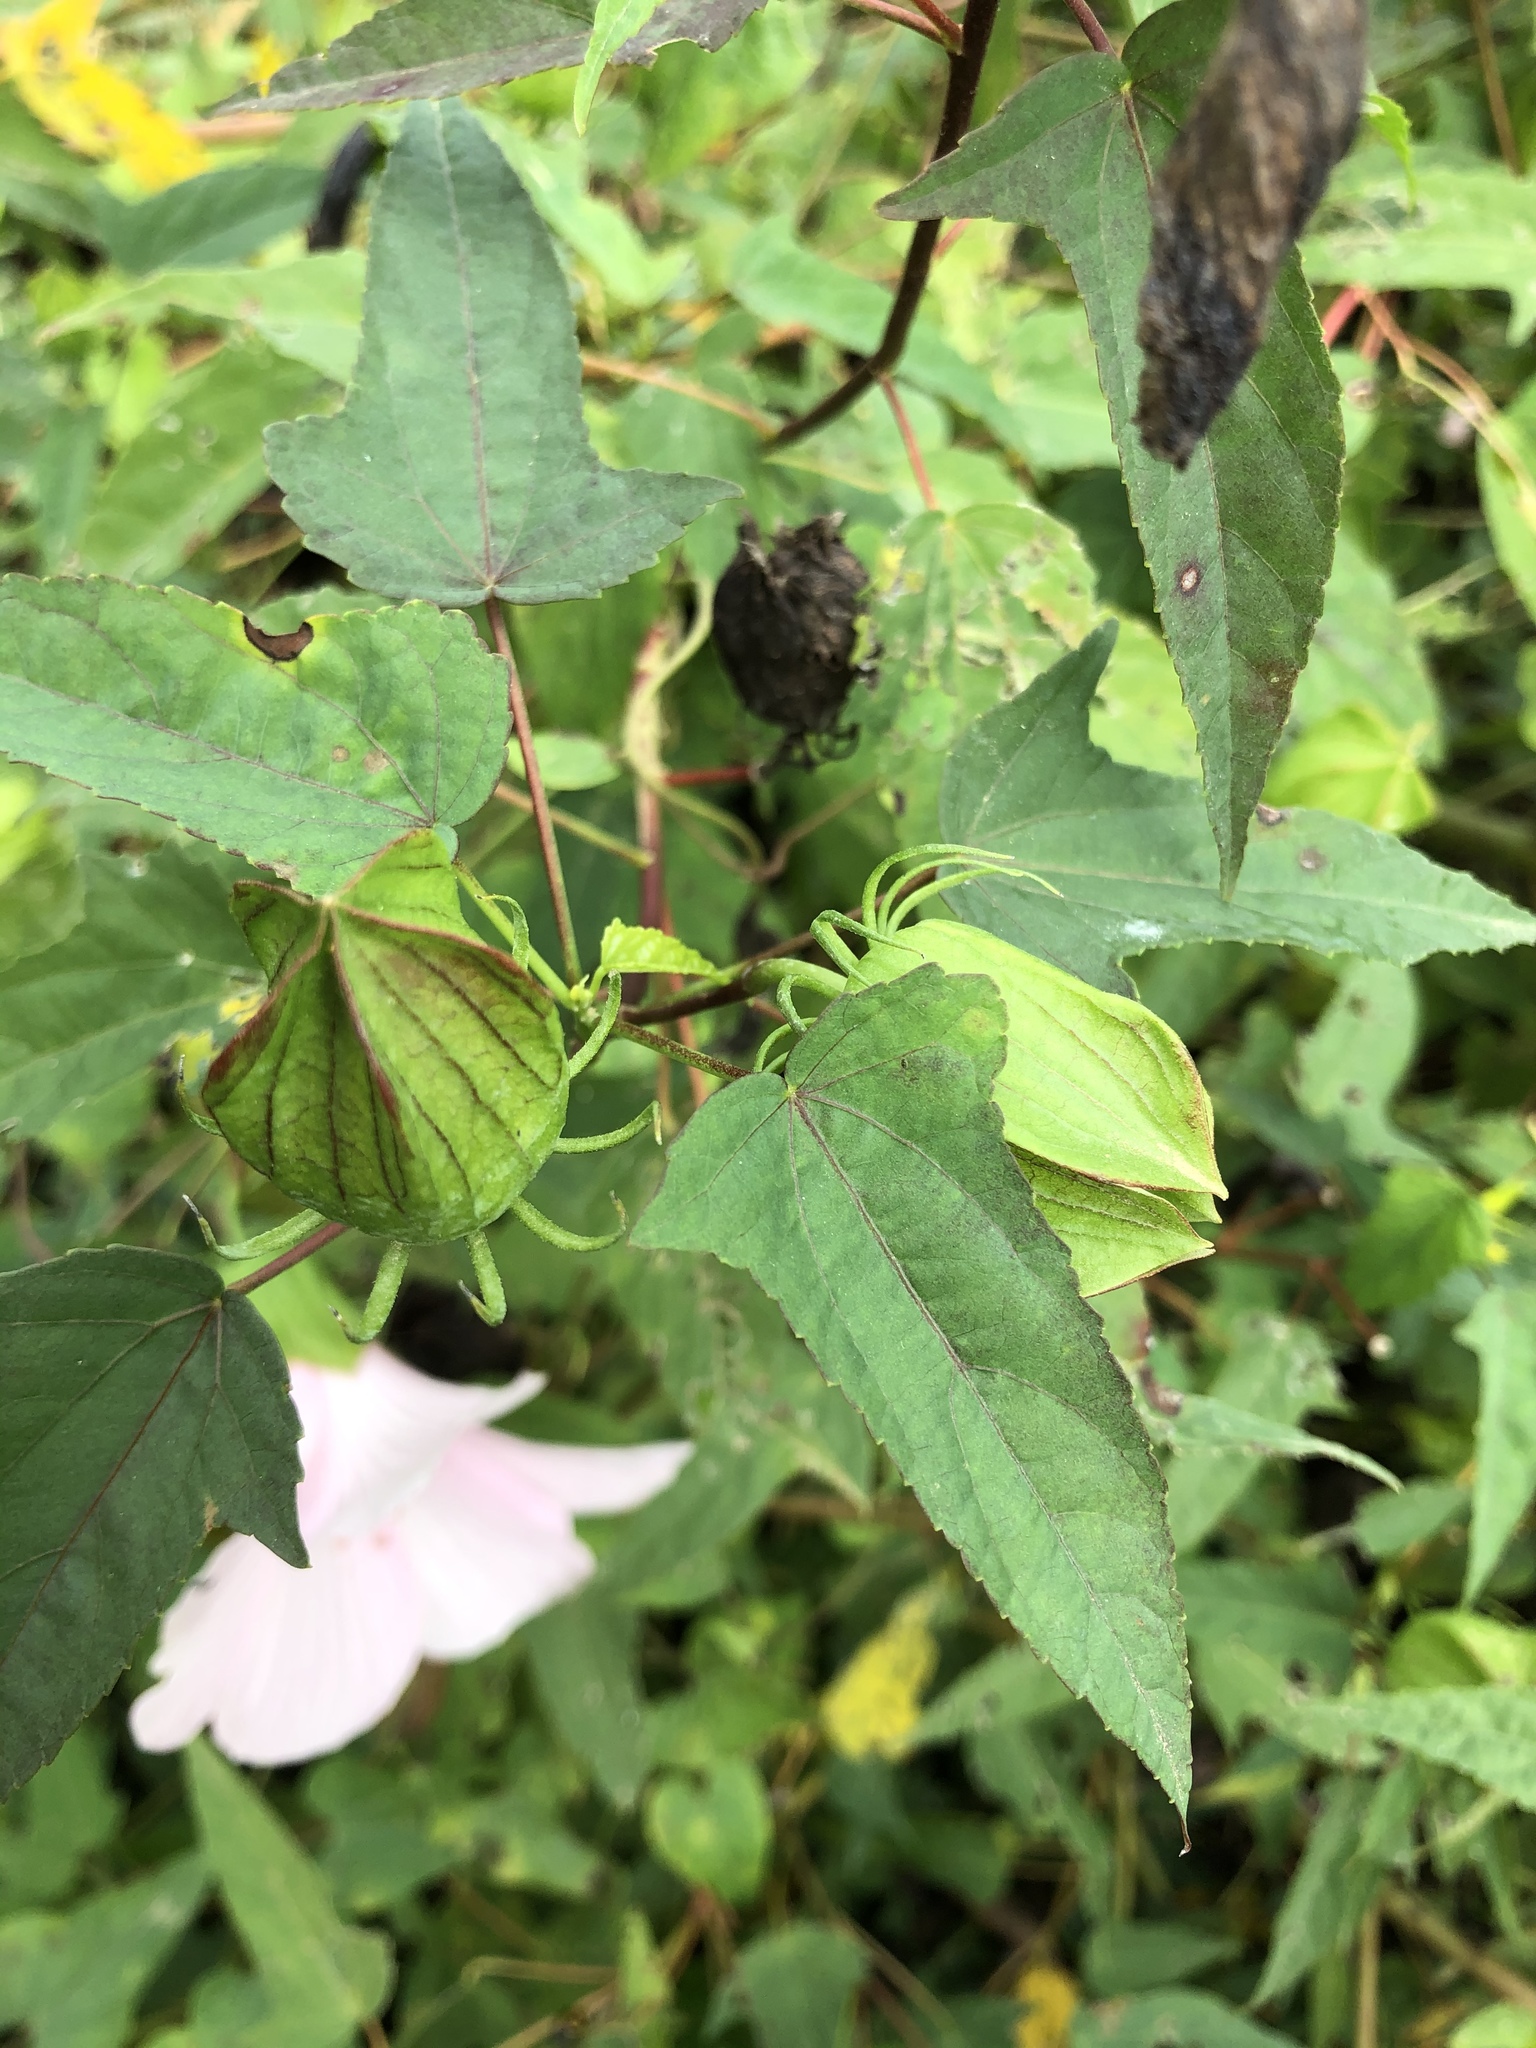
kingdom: Plantae
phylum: Tracheophyta
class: Magnoliopsida
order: Malvales
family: Malvaceae
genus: Hibiscus
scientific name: Hibiscus laevis
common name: Scarlet rose-mallow
